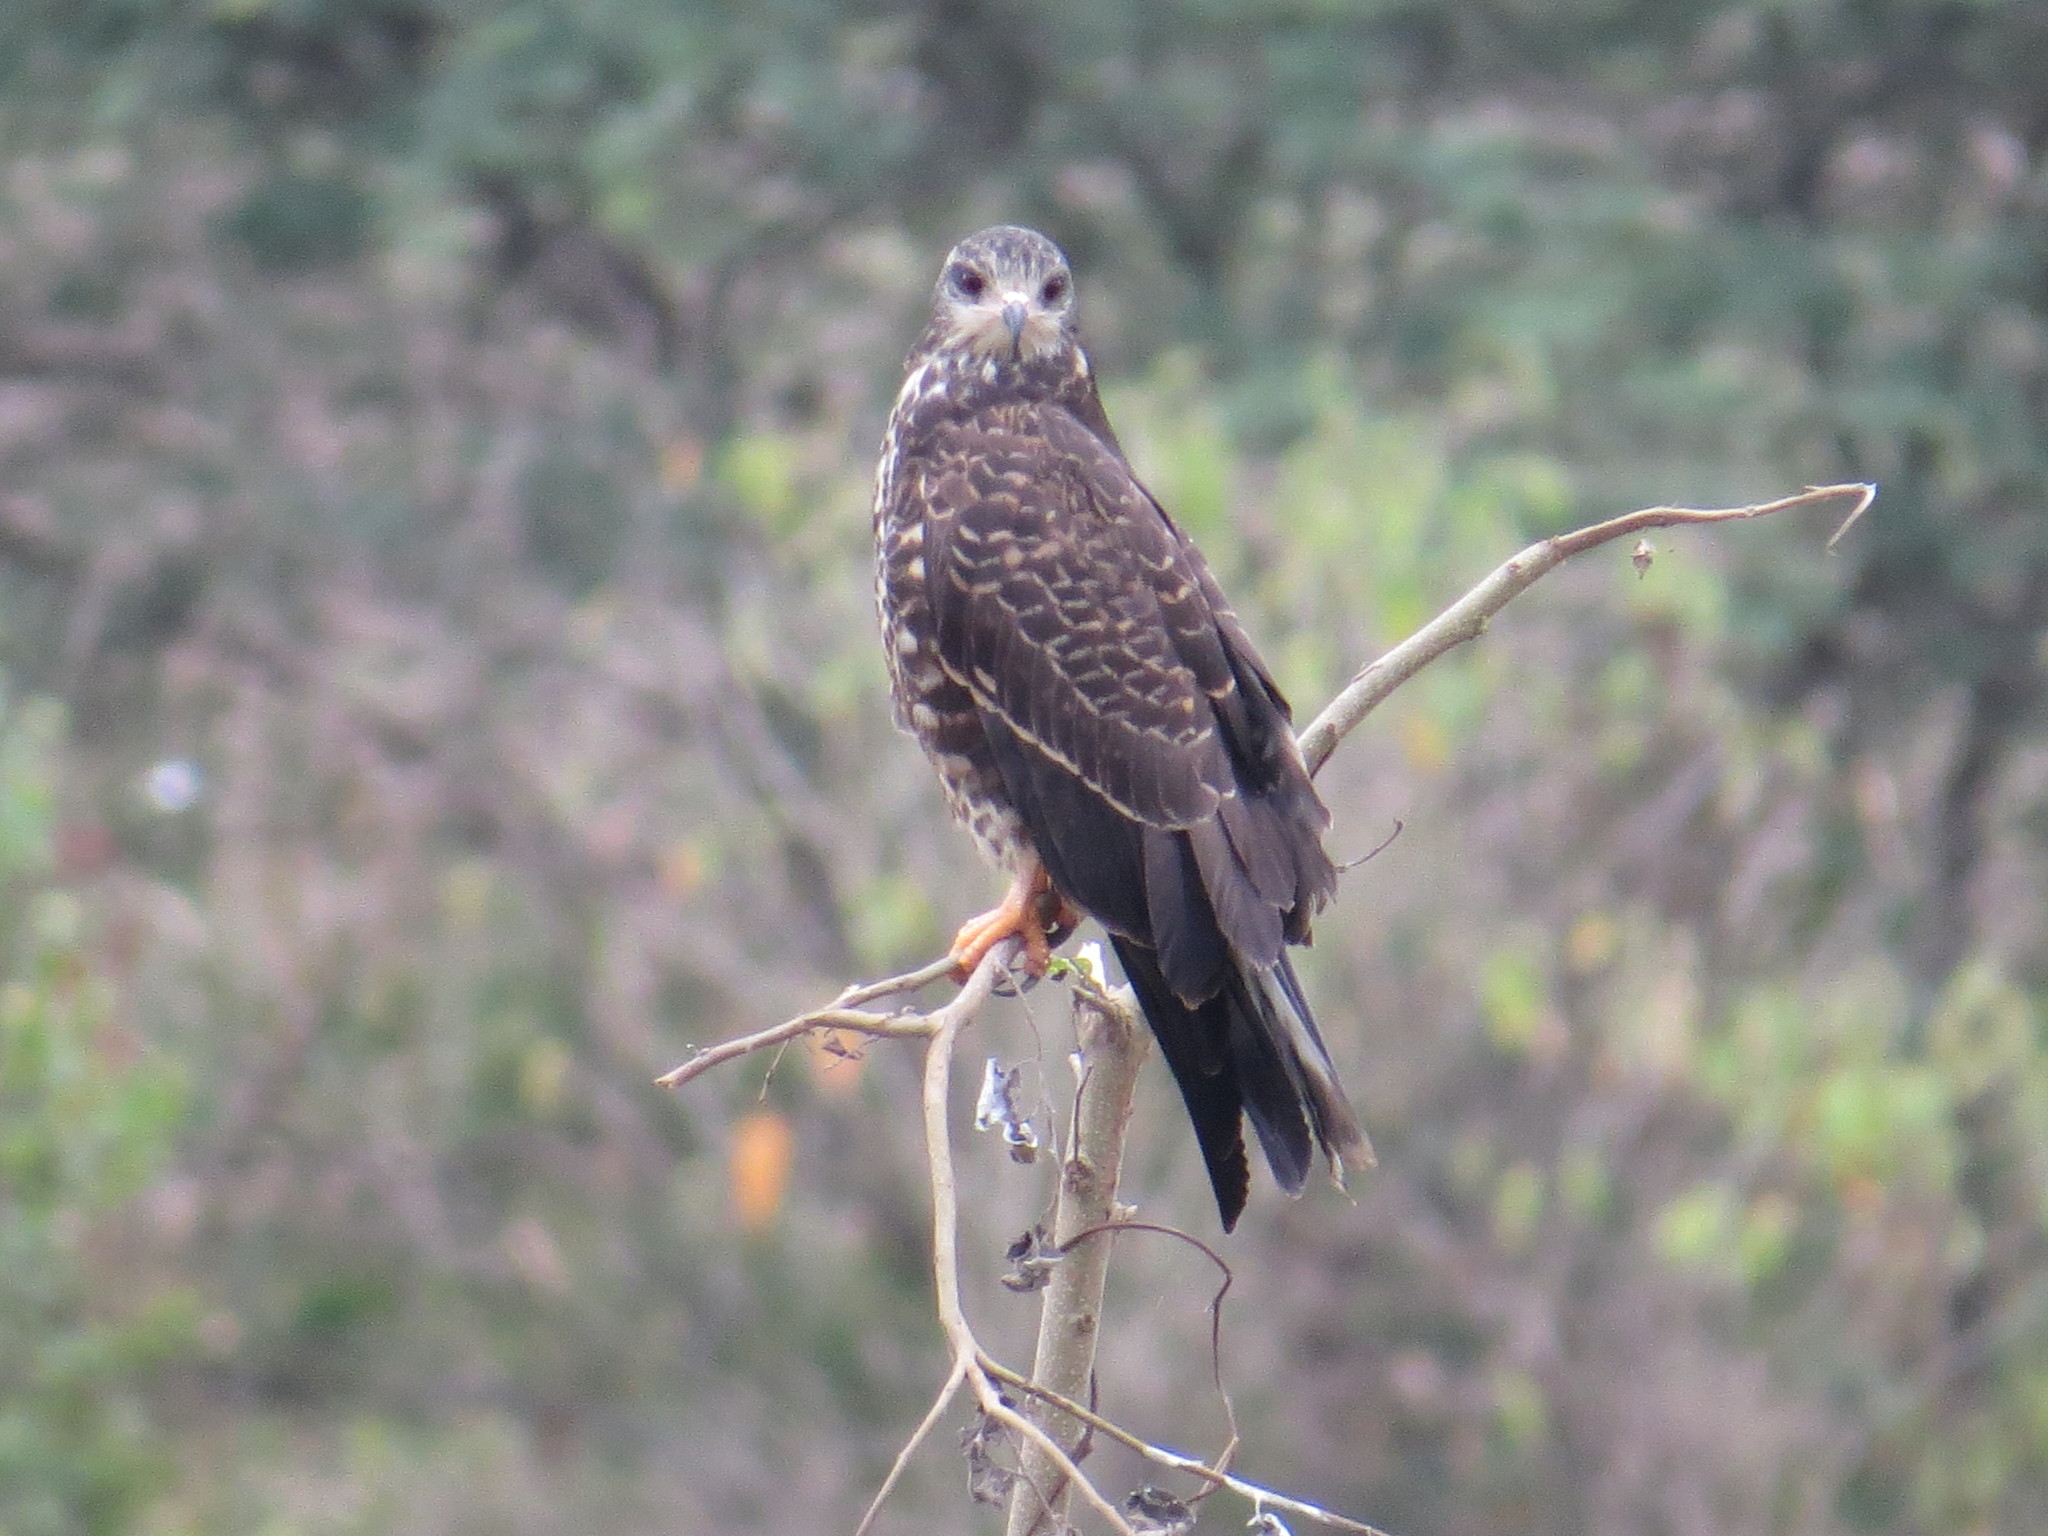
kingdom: Animalia
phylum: Chordata
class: Aves
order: Accipitriformes
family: Accipitridae
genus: Rostrhamus
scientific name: Rostrhamus sociabilis
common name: Snail kite
